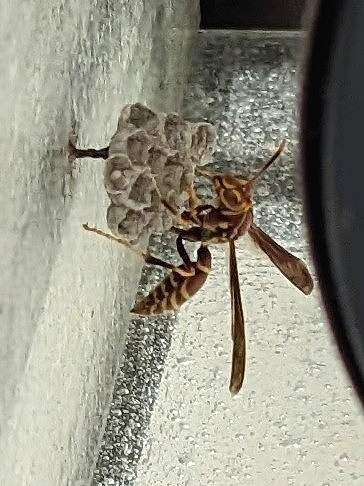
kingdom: Animalia
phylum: Arthropoda
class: Insecta
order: Hymenoptera
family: Eumenidae
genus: Polistes
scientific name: Polistes exclamans
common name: Paper wasp
